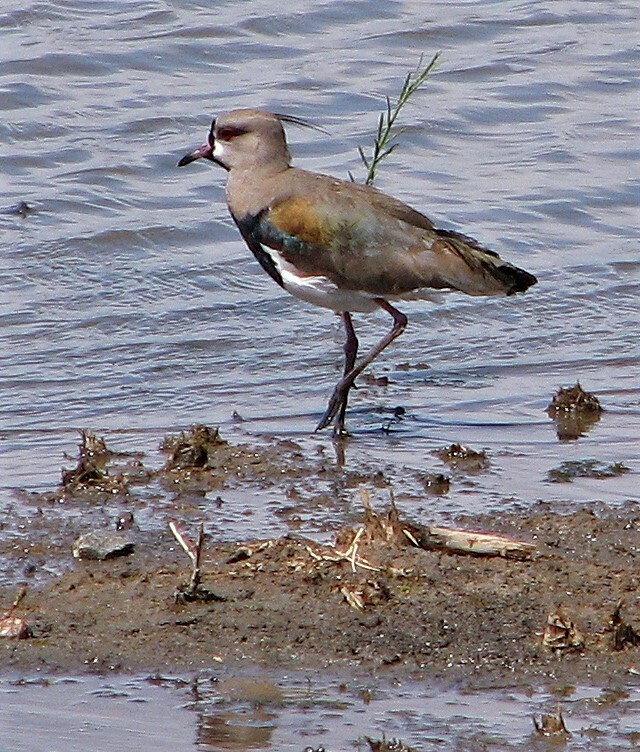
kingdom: Animalia
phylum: Chordata
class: Aves
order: Charadriiformes
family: Charadriidae
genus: Vanellus
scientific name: Vanellus chilensis
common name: Southern lapwing
